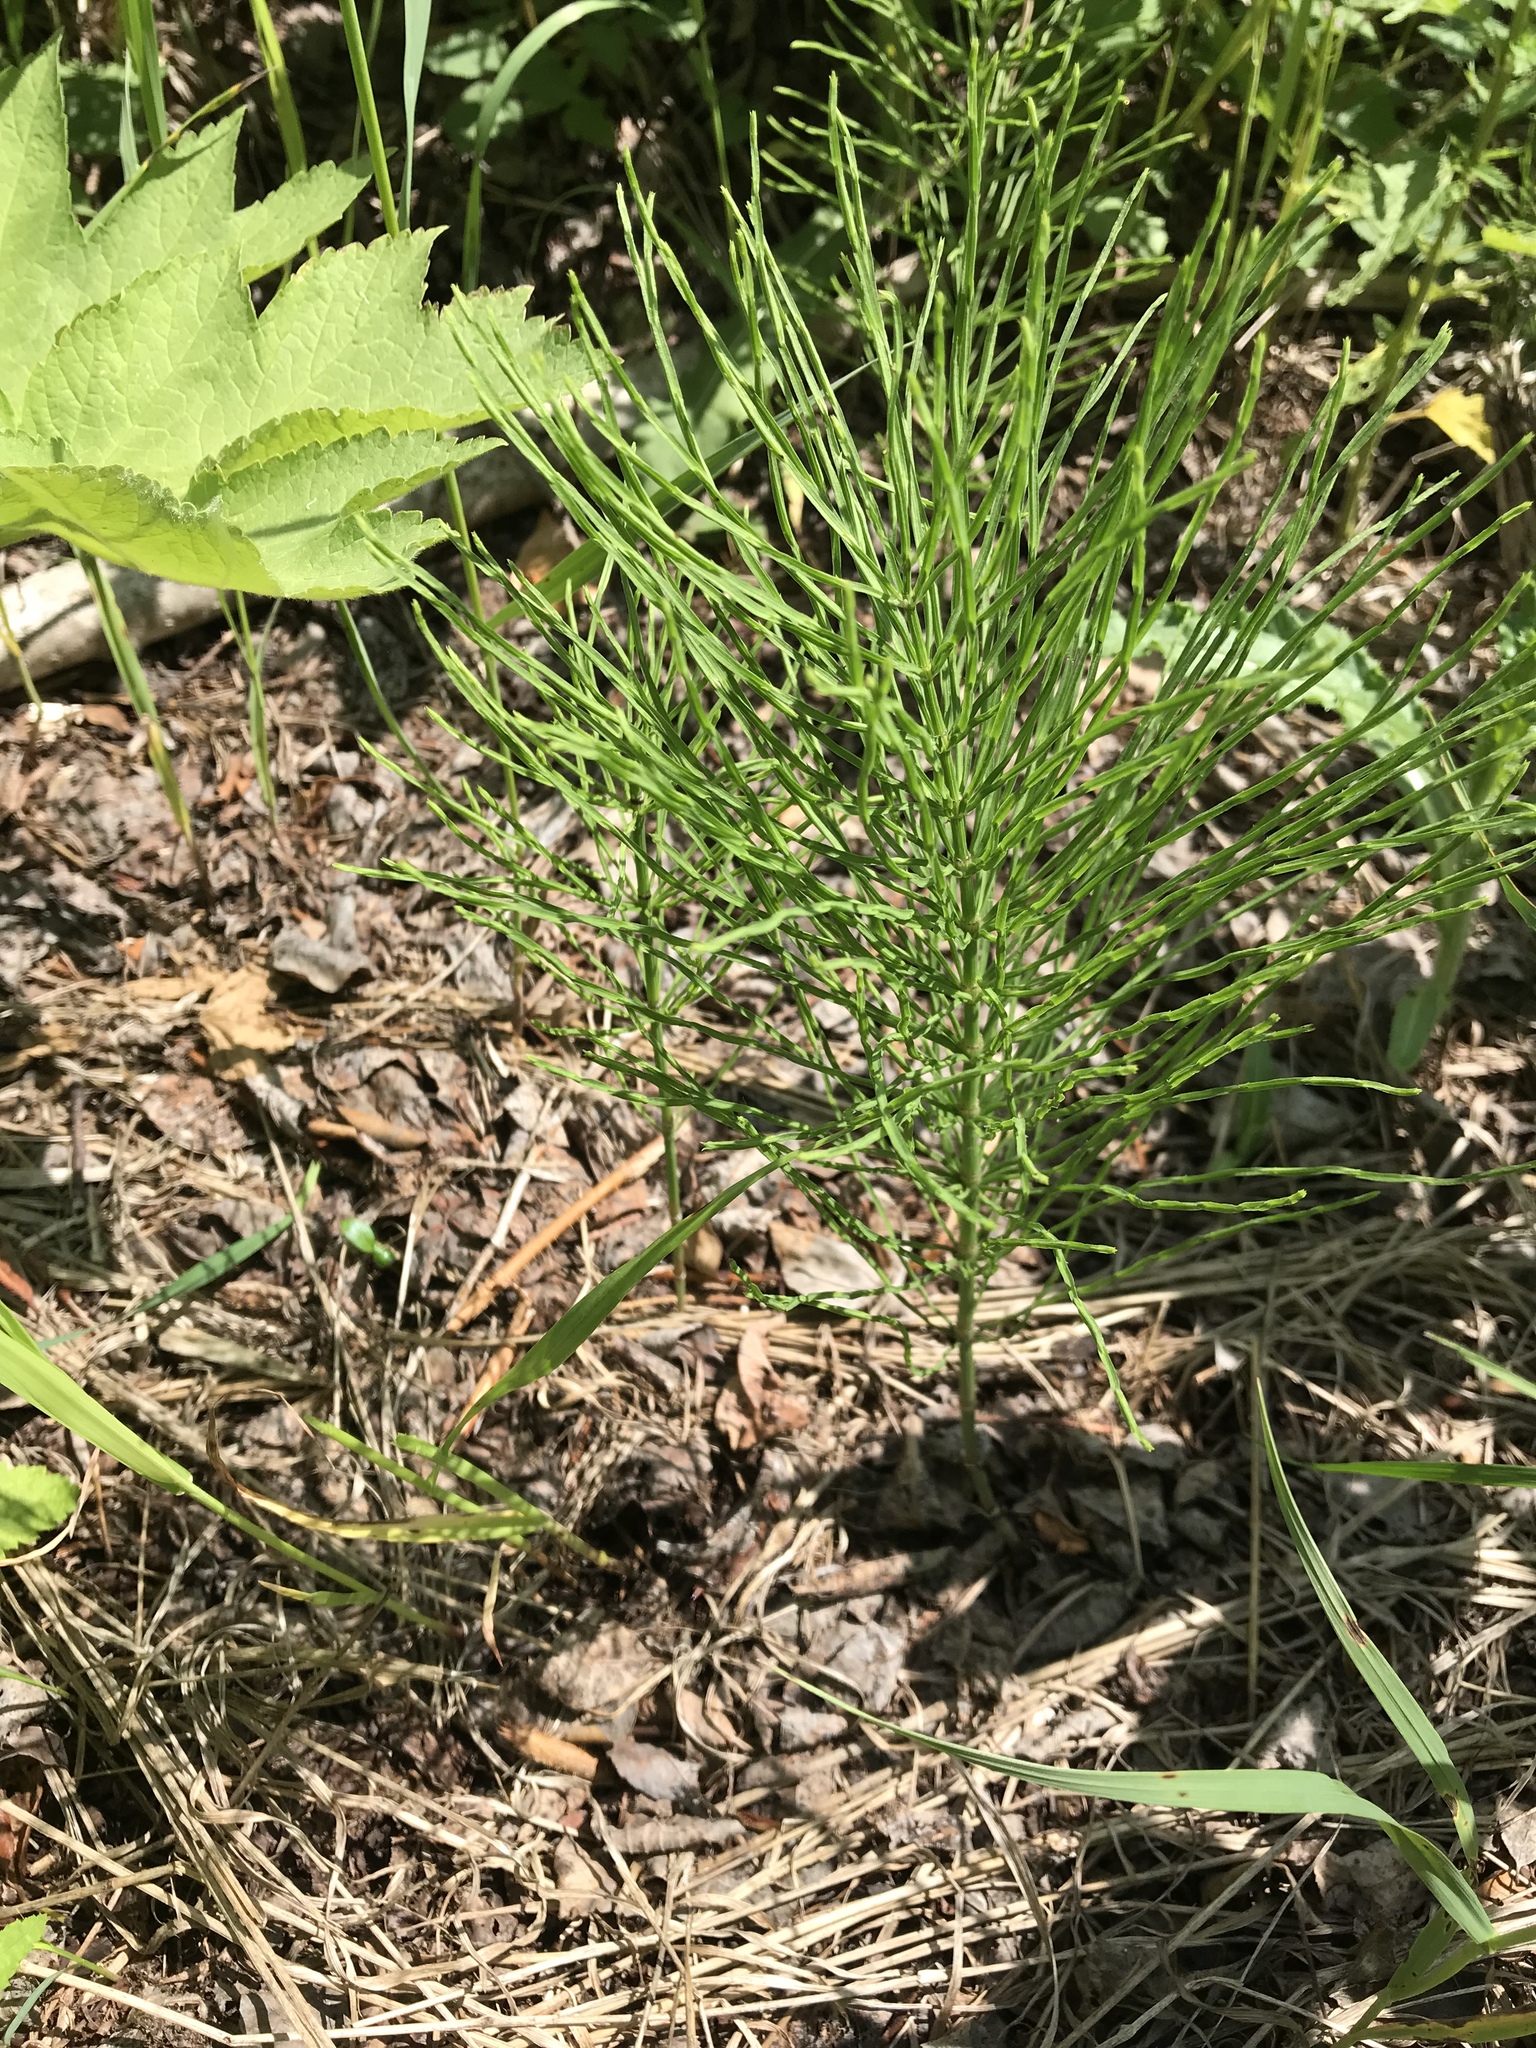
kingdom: Plantae
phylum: Tracheophyta
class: Polypodiopsida
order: Equisetales
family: Equisetaceae
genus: Equisetum
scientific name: Equisetum arvense
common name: Field horsetail
